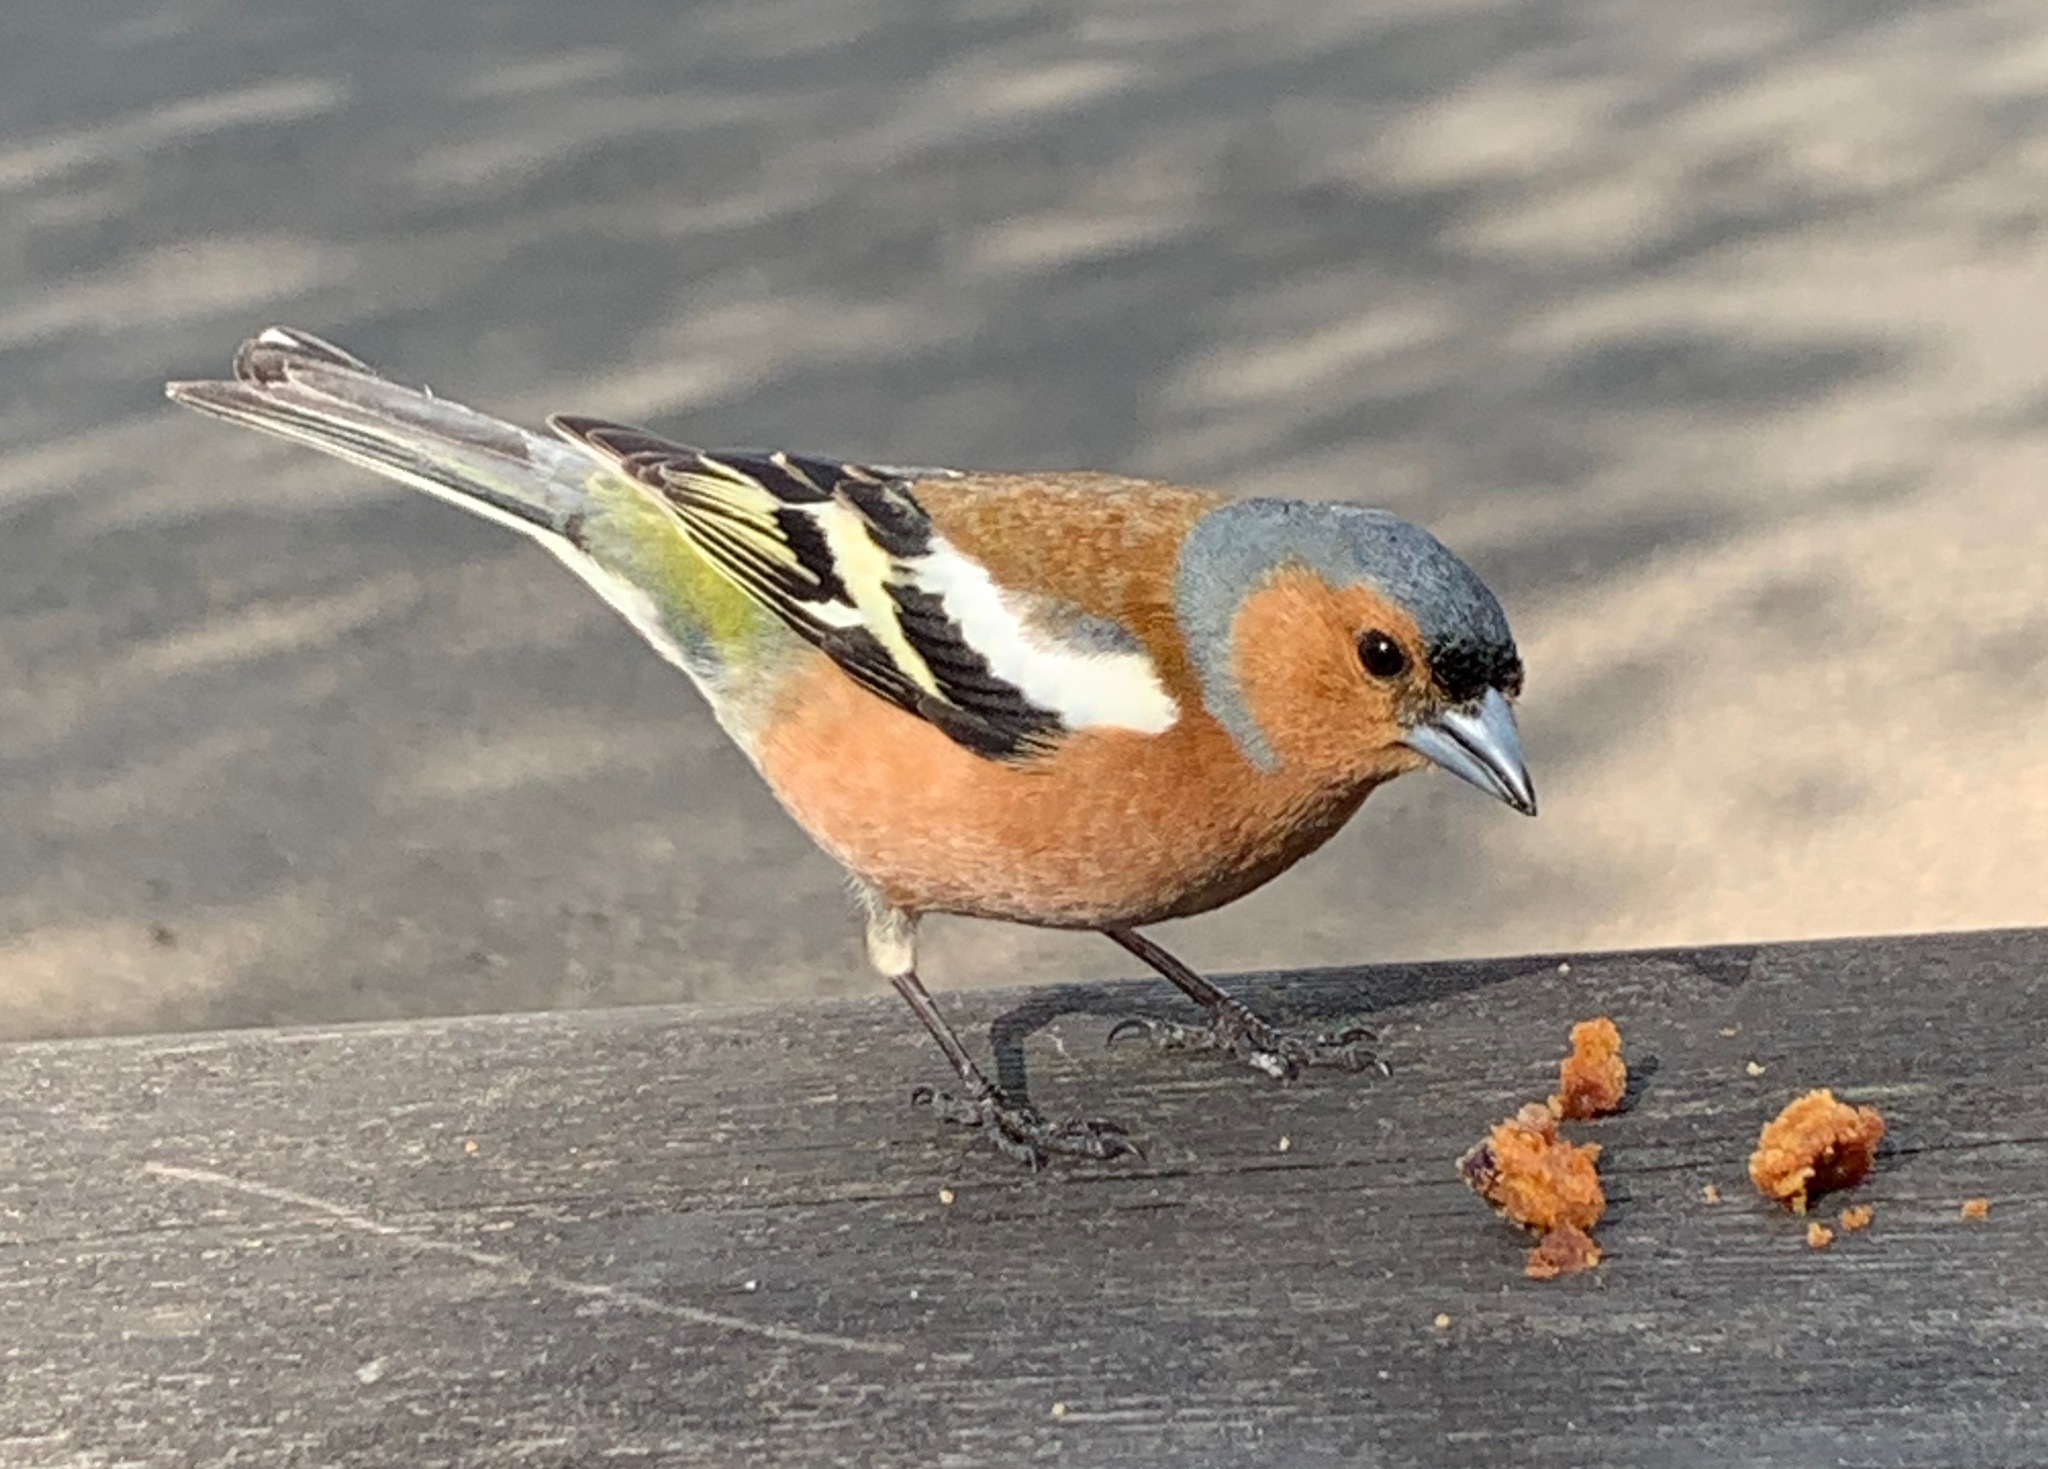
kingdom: Animalia
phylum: Chordata
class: Aves
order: Passeriformes
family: Fringillidae
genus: Fringilla
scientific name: Fringilla coelebs
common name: Common chaffinch
